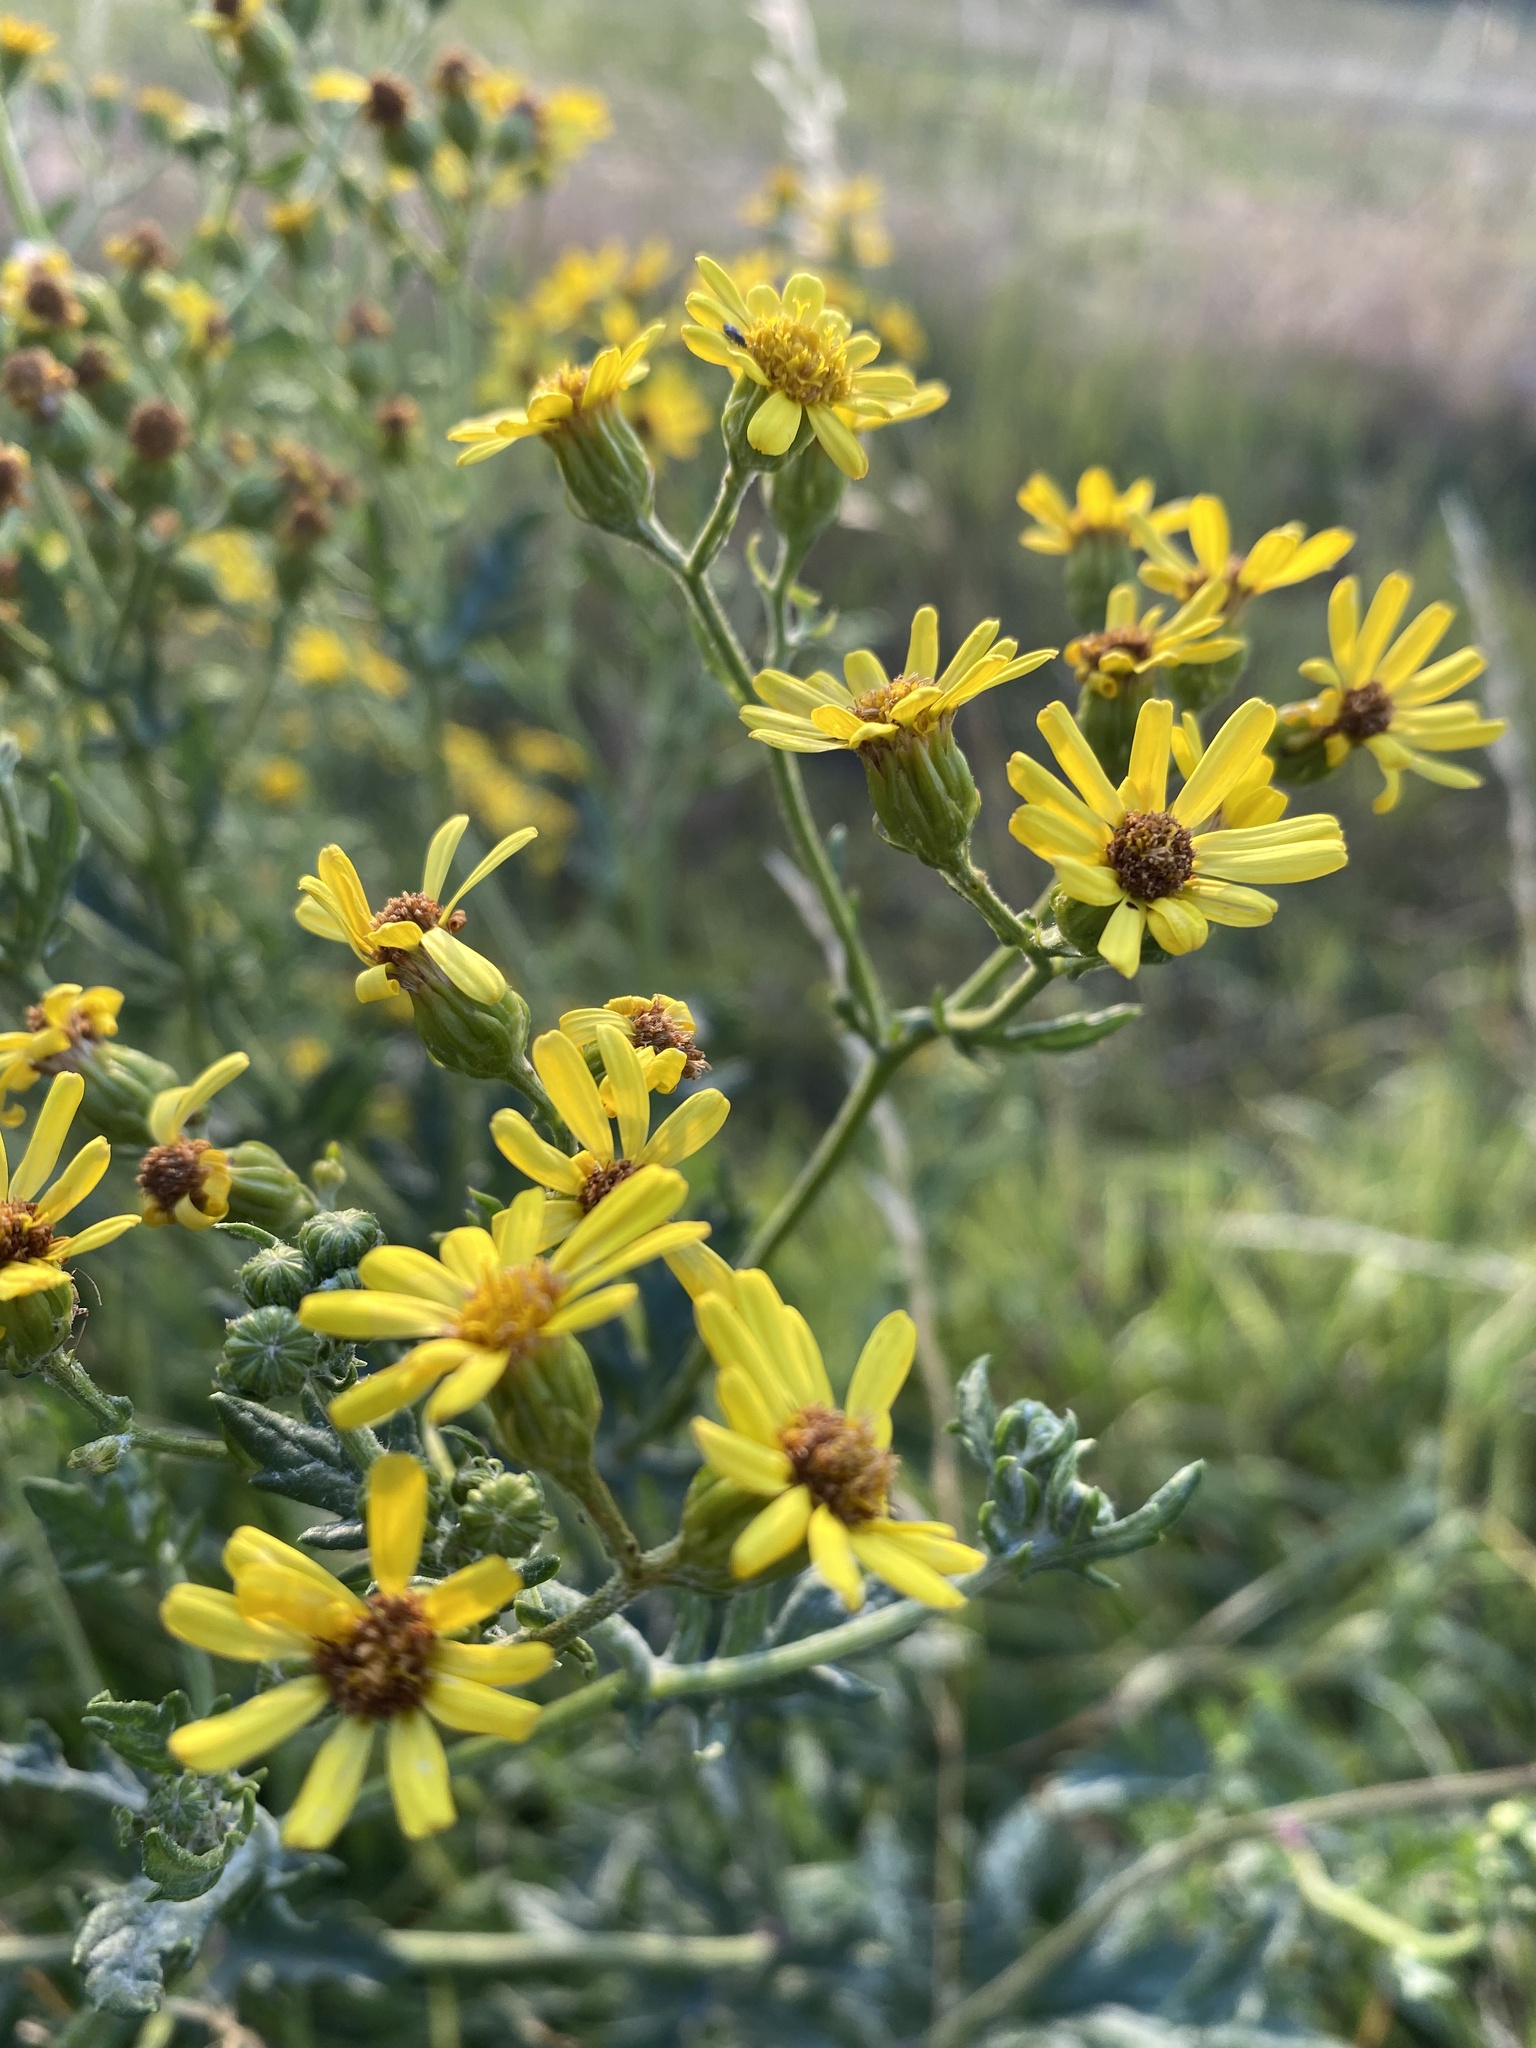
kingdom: Plantae
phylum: Tracheophyta
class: Magnoliopsida
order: Asterales
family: Asteraceae
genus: Jacobaea
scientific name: Jacobaea erucifolia
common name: Hoary ragwort
